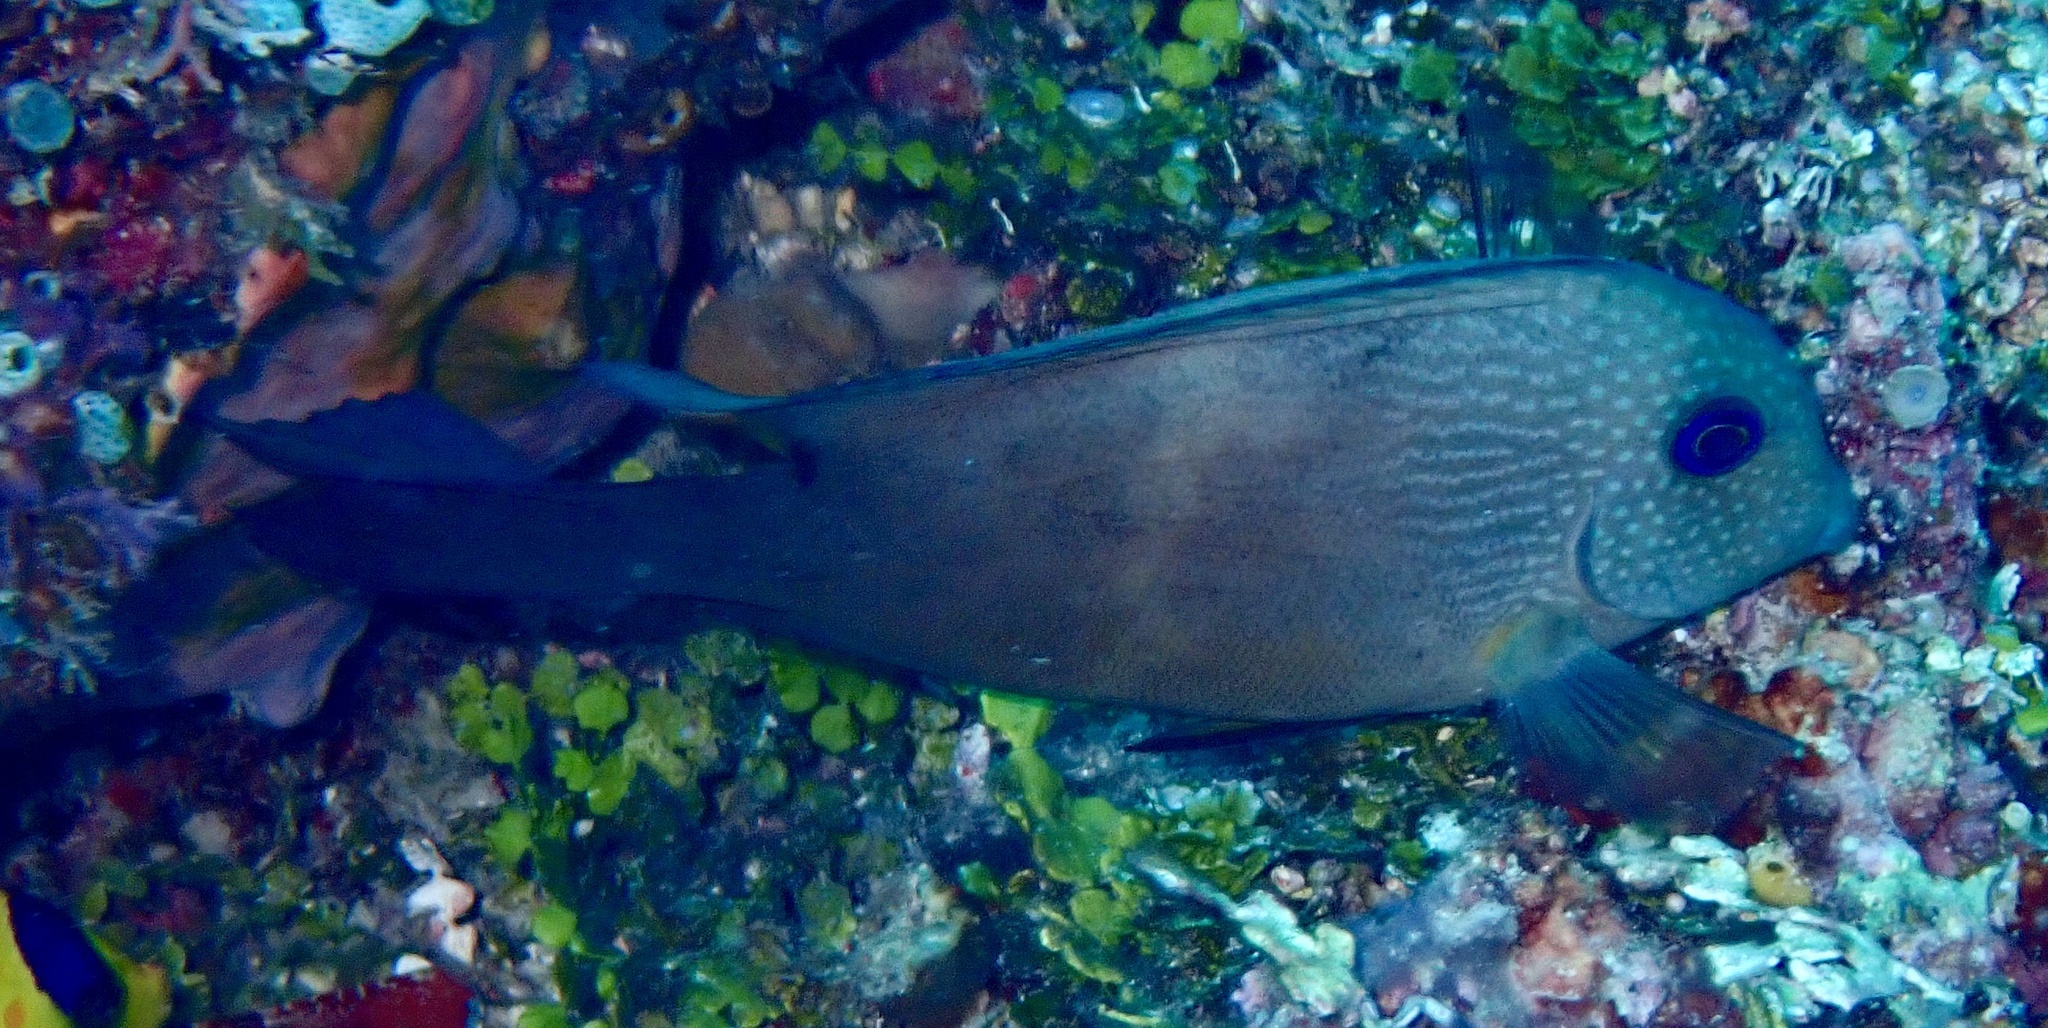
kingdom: Animalia
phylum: Chordata
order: Perciformes
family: Acanthuridae
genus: Ctenochaetus
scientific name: Ctenochaetus binotatus
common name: Two-spot bristletooth
